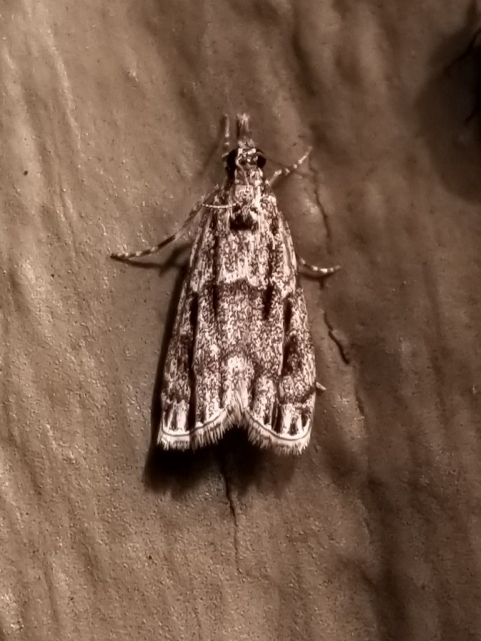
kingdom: Animalia
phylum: Arthropoda
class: Insecta
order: Lepidoptera
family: Crambidae
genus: Eudonia
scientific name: Eudonia strigalis
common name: Striped eudonia moth
